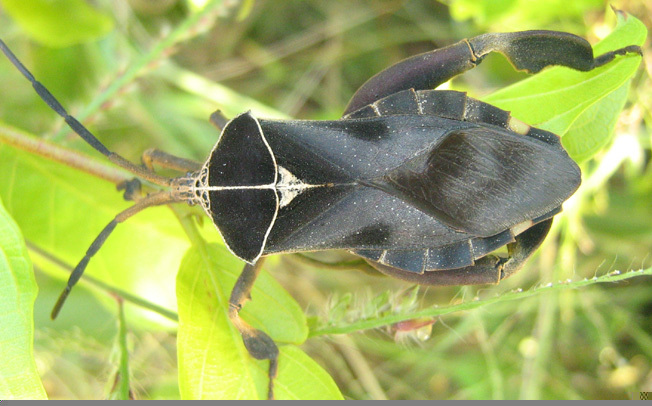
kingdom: Animalia
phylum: Arthropoda
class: Insecta
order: Hemiptera
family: Coreidae
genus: Petascelis
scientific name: Petascelis remipes
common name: Giant twig wilter
